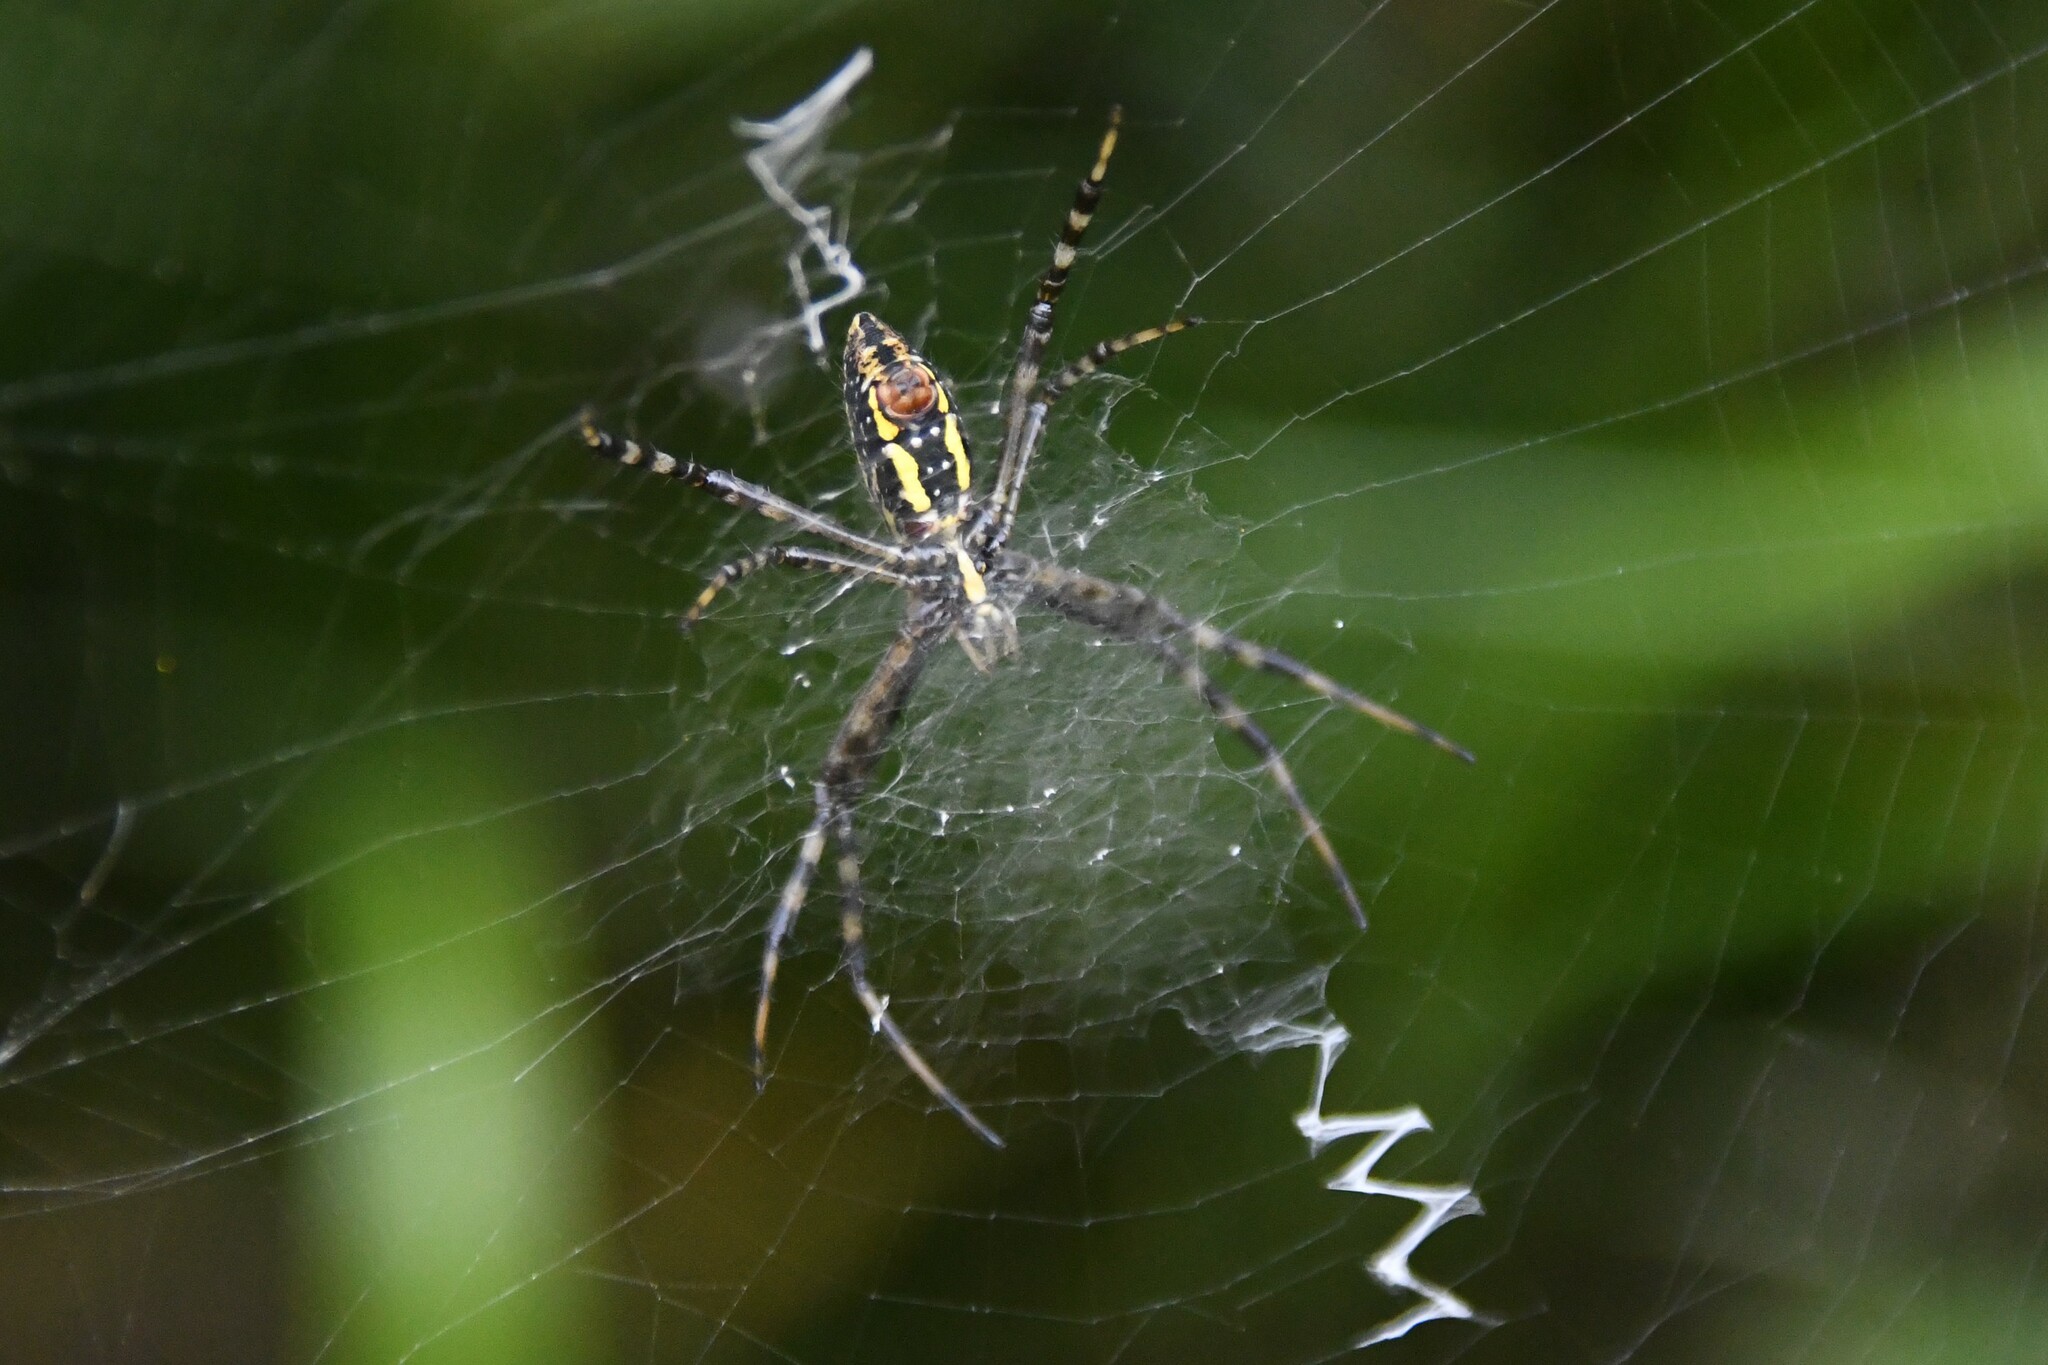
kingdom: Animalia
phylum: Arthropoda
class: Arachnida
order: Araneae
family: Araneidae
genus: Argiope
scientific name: Argiope trifasciata
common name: Banded garden spider
